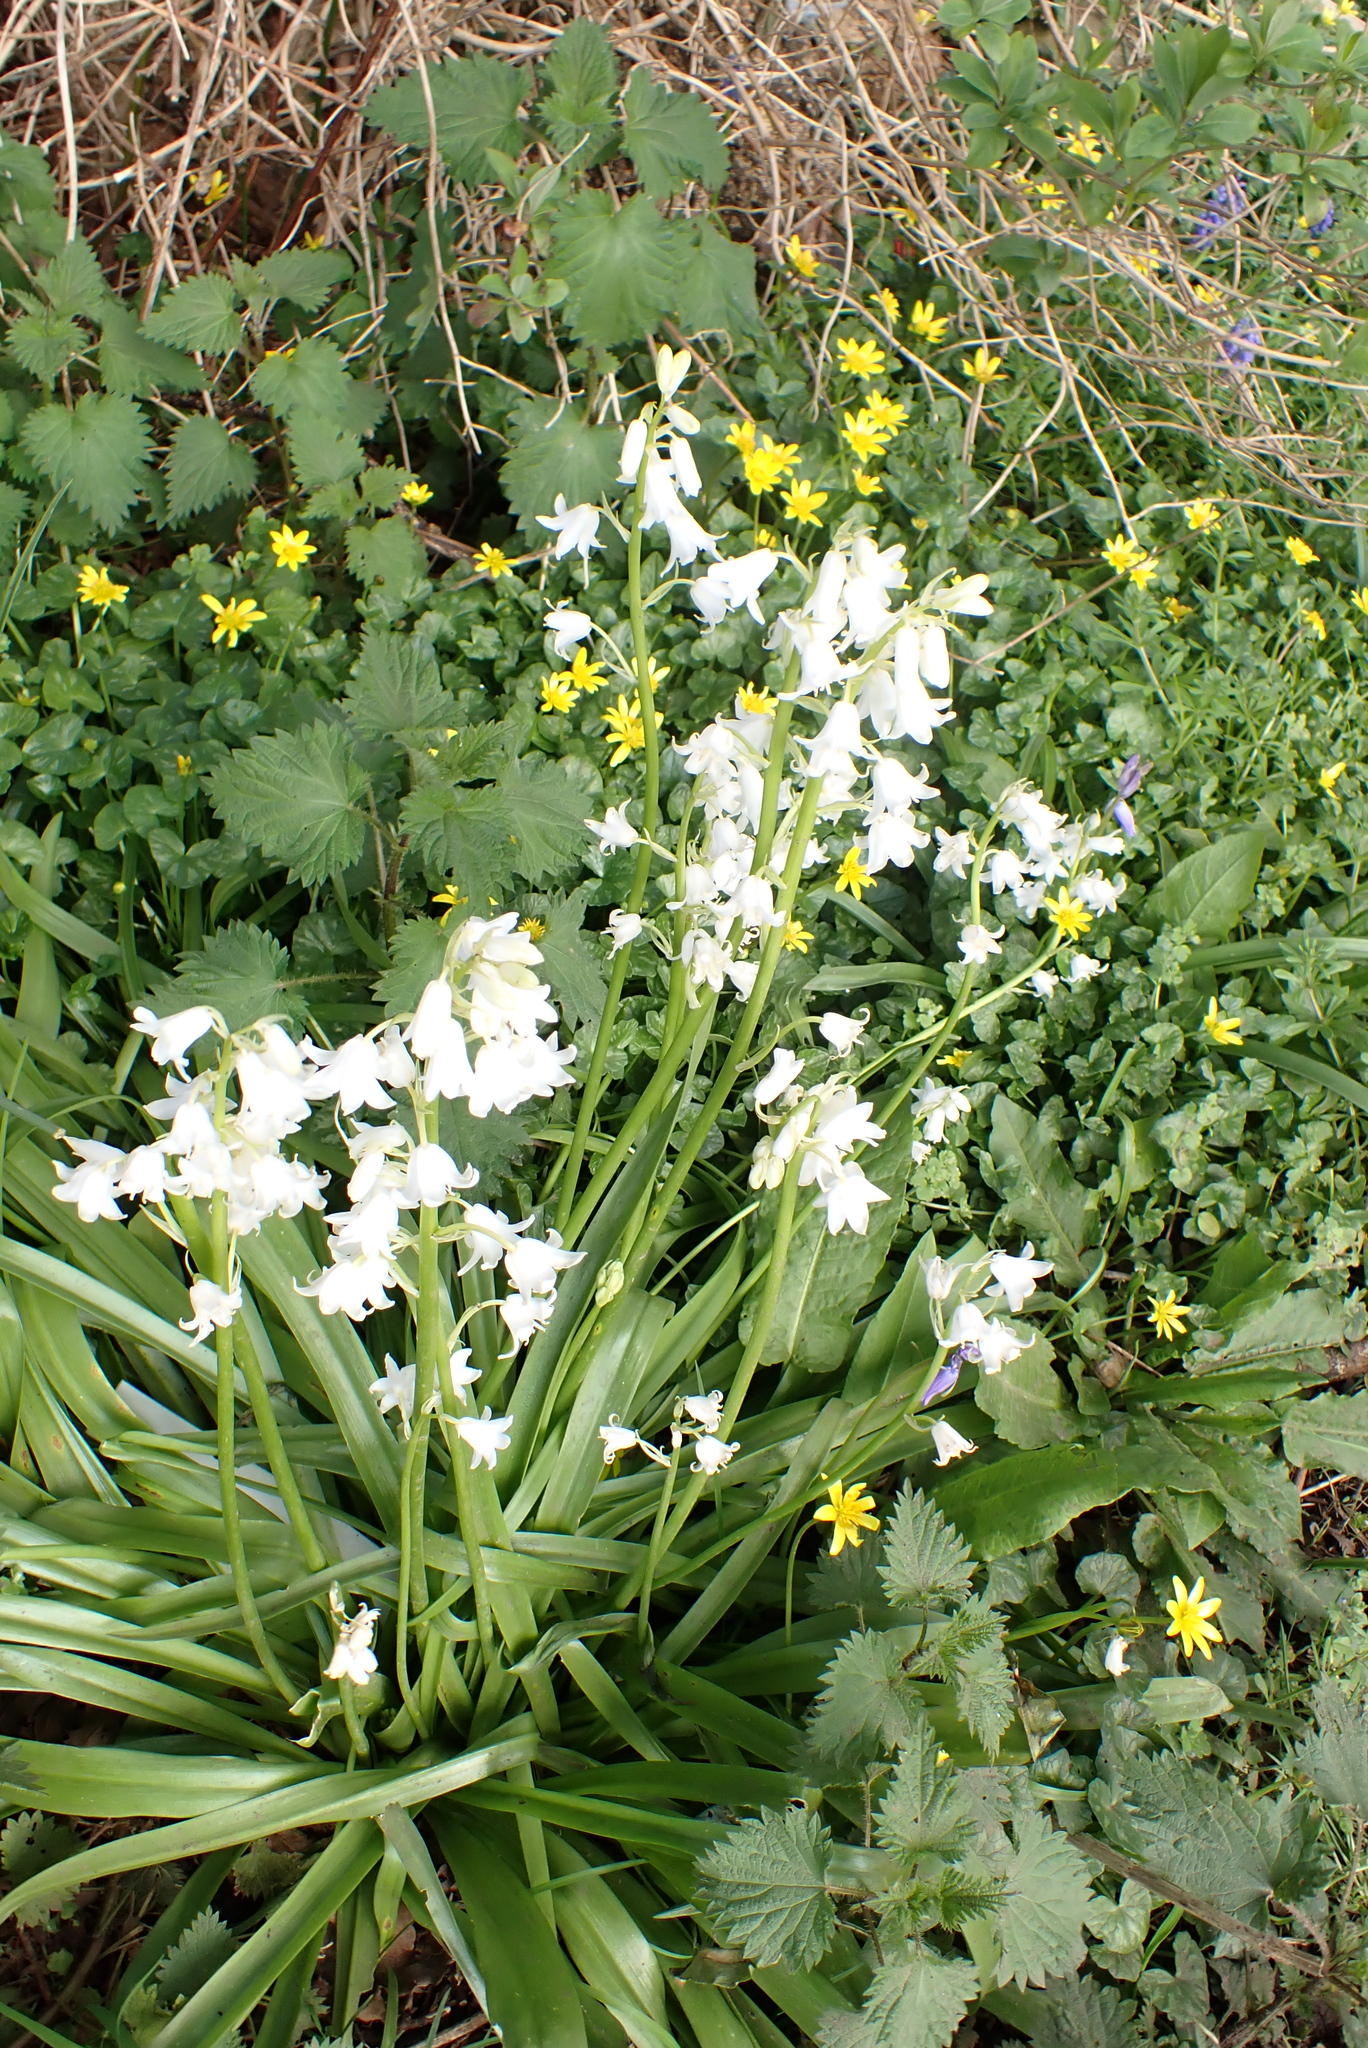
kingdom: Plantae
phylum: Tracheophyta
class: Liliopsida
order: Asparagales
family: Asparagaceae
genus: Hyacinthoides
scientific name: Hyacinthoides massartiana
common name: Hyacinthoides
